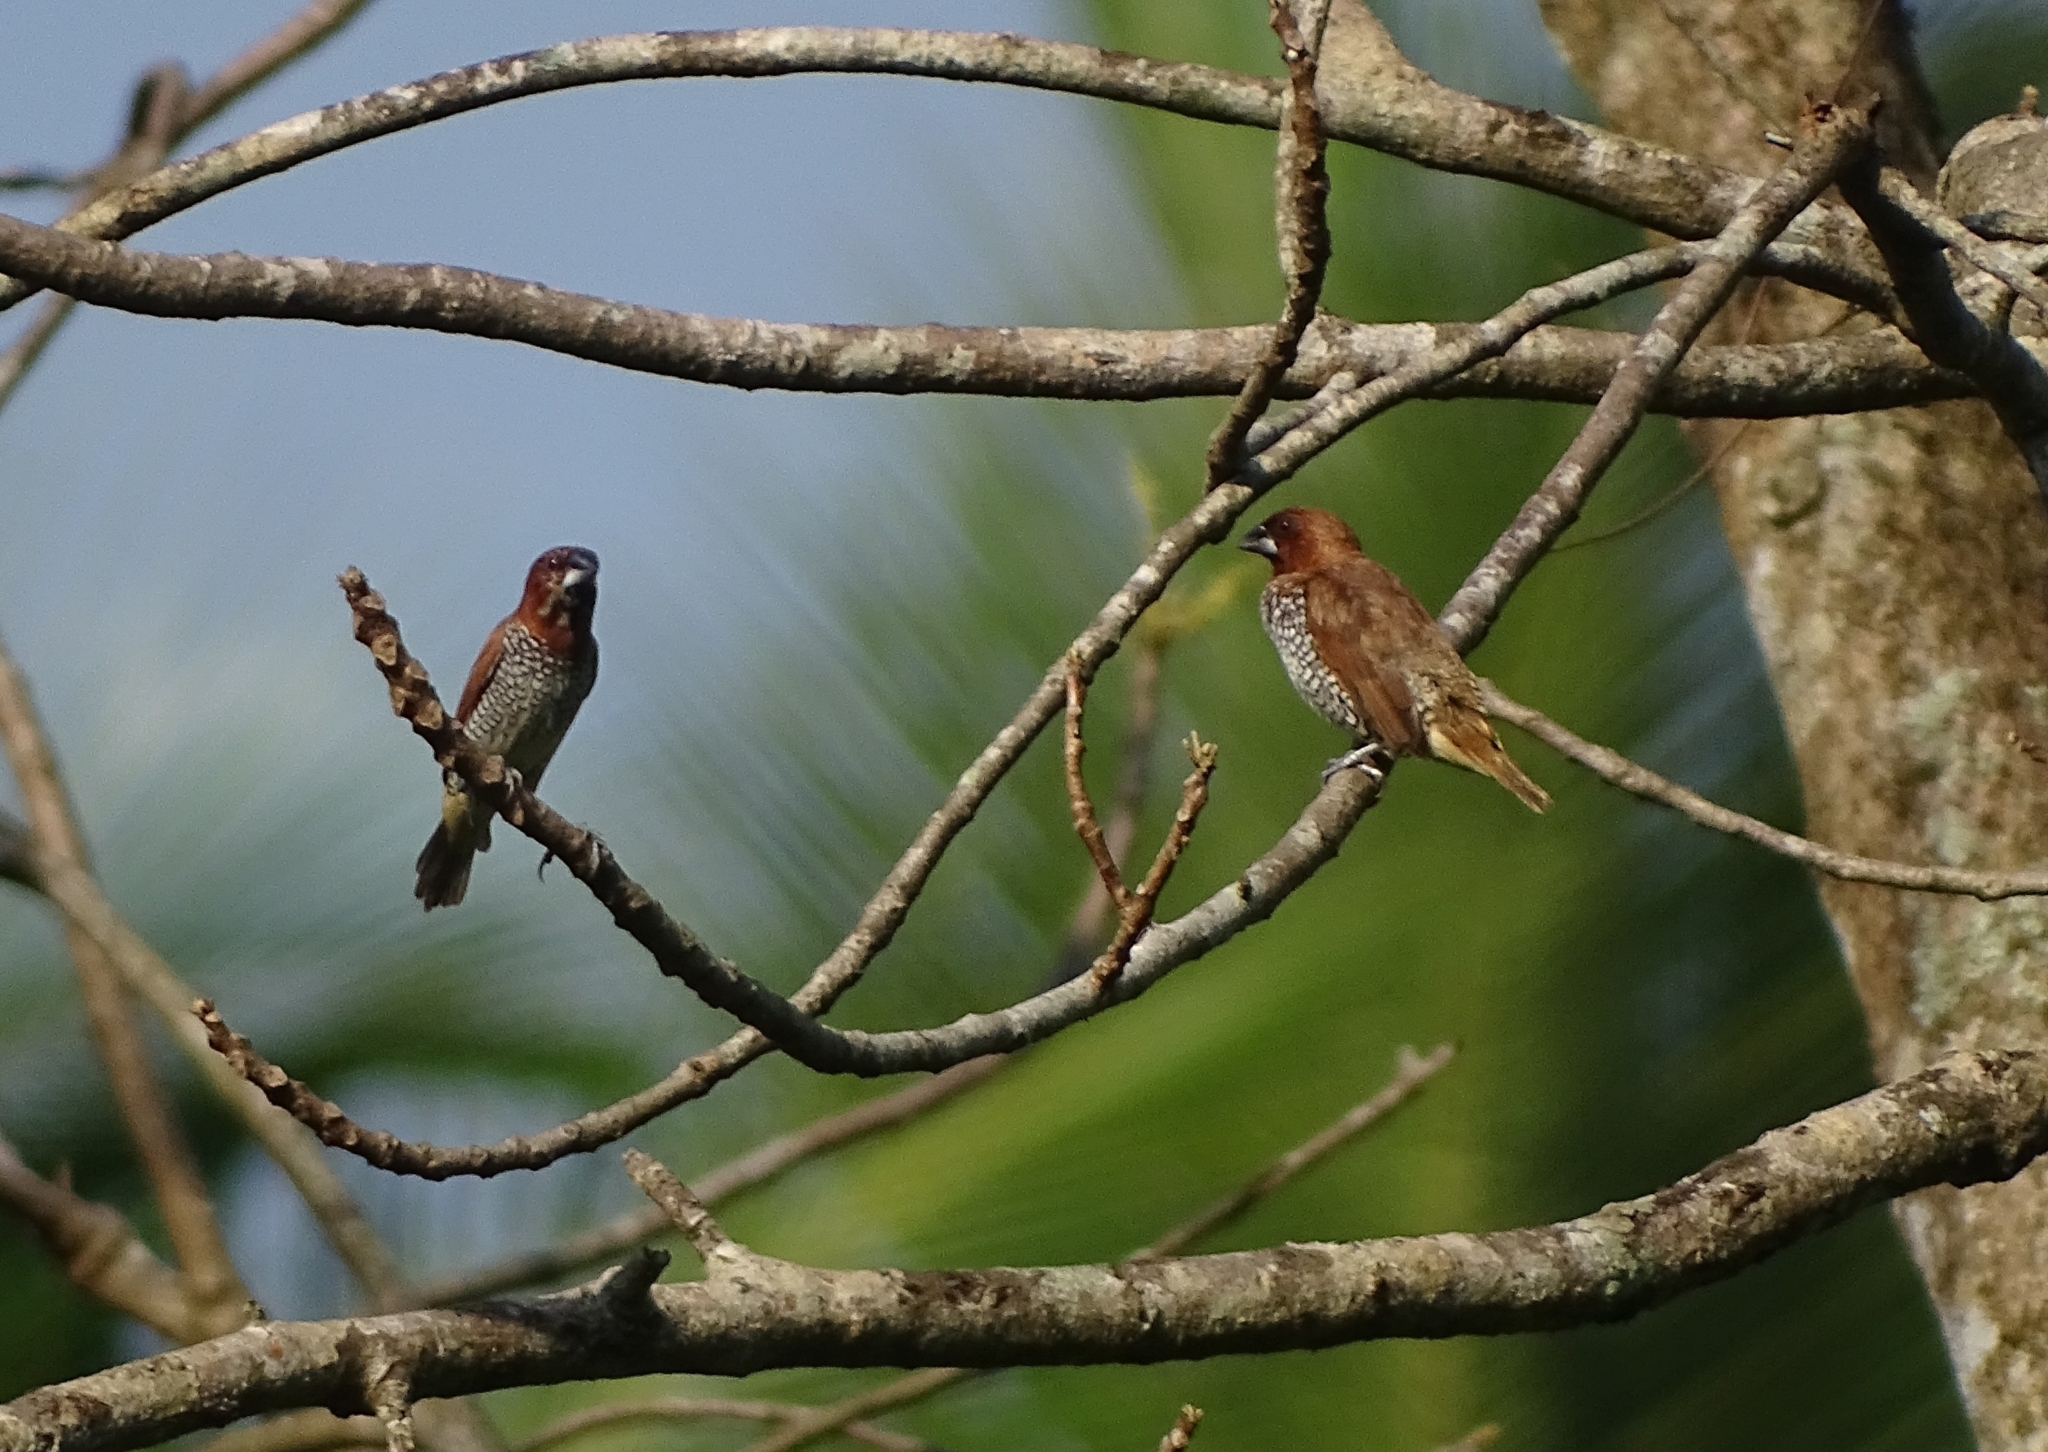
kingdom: Animalia
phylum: Chordata
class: Aves
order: Passeriformes
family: Estrildidae
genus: Lonchura
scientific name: Lonchura punctulata
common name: Scaly-breasted munia
